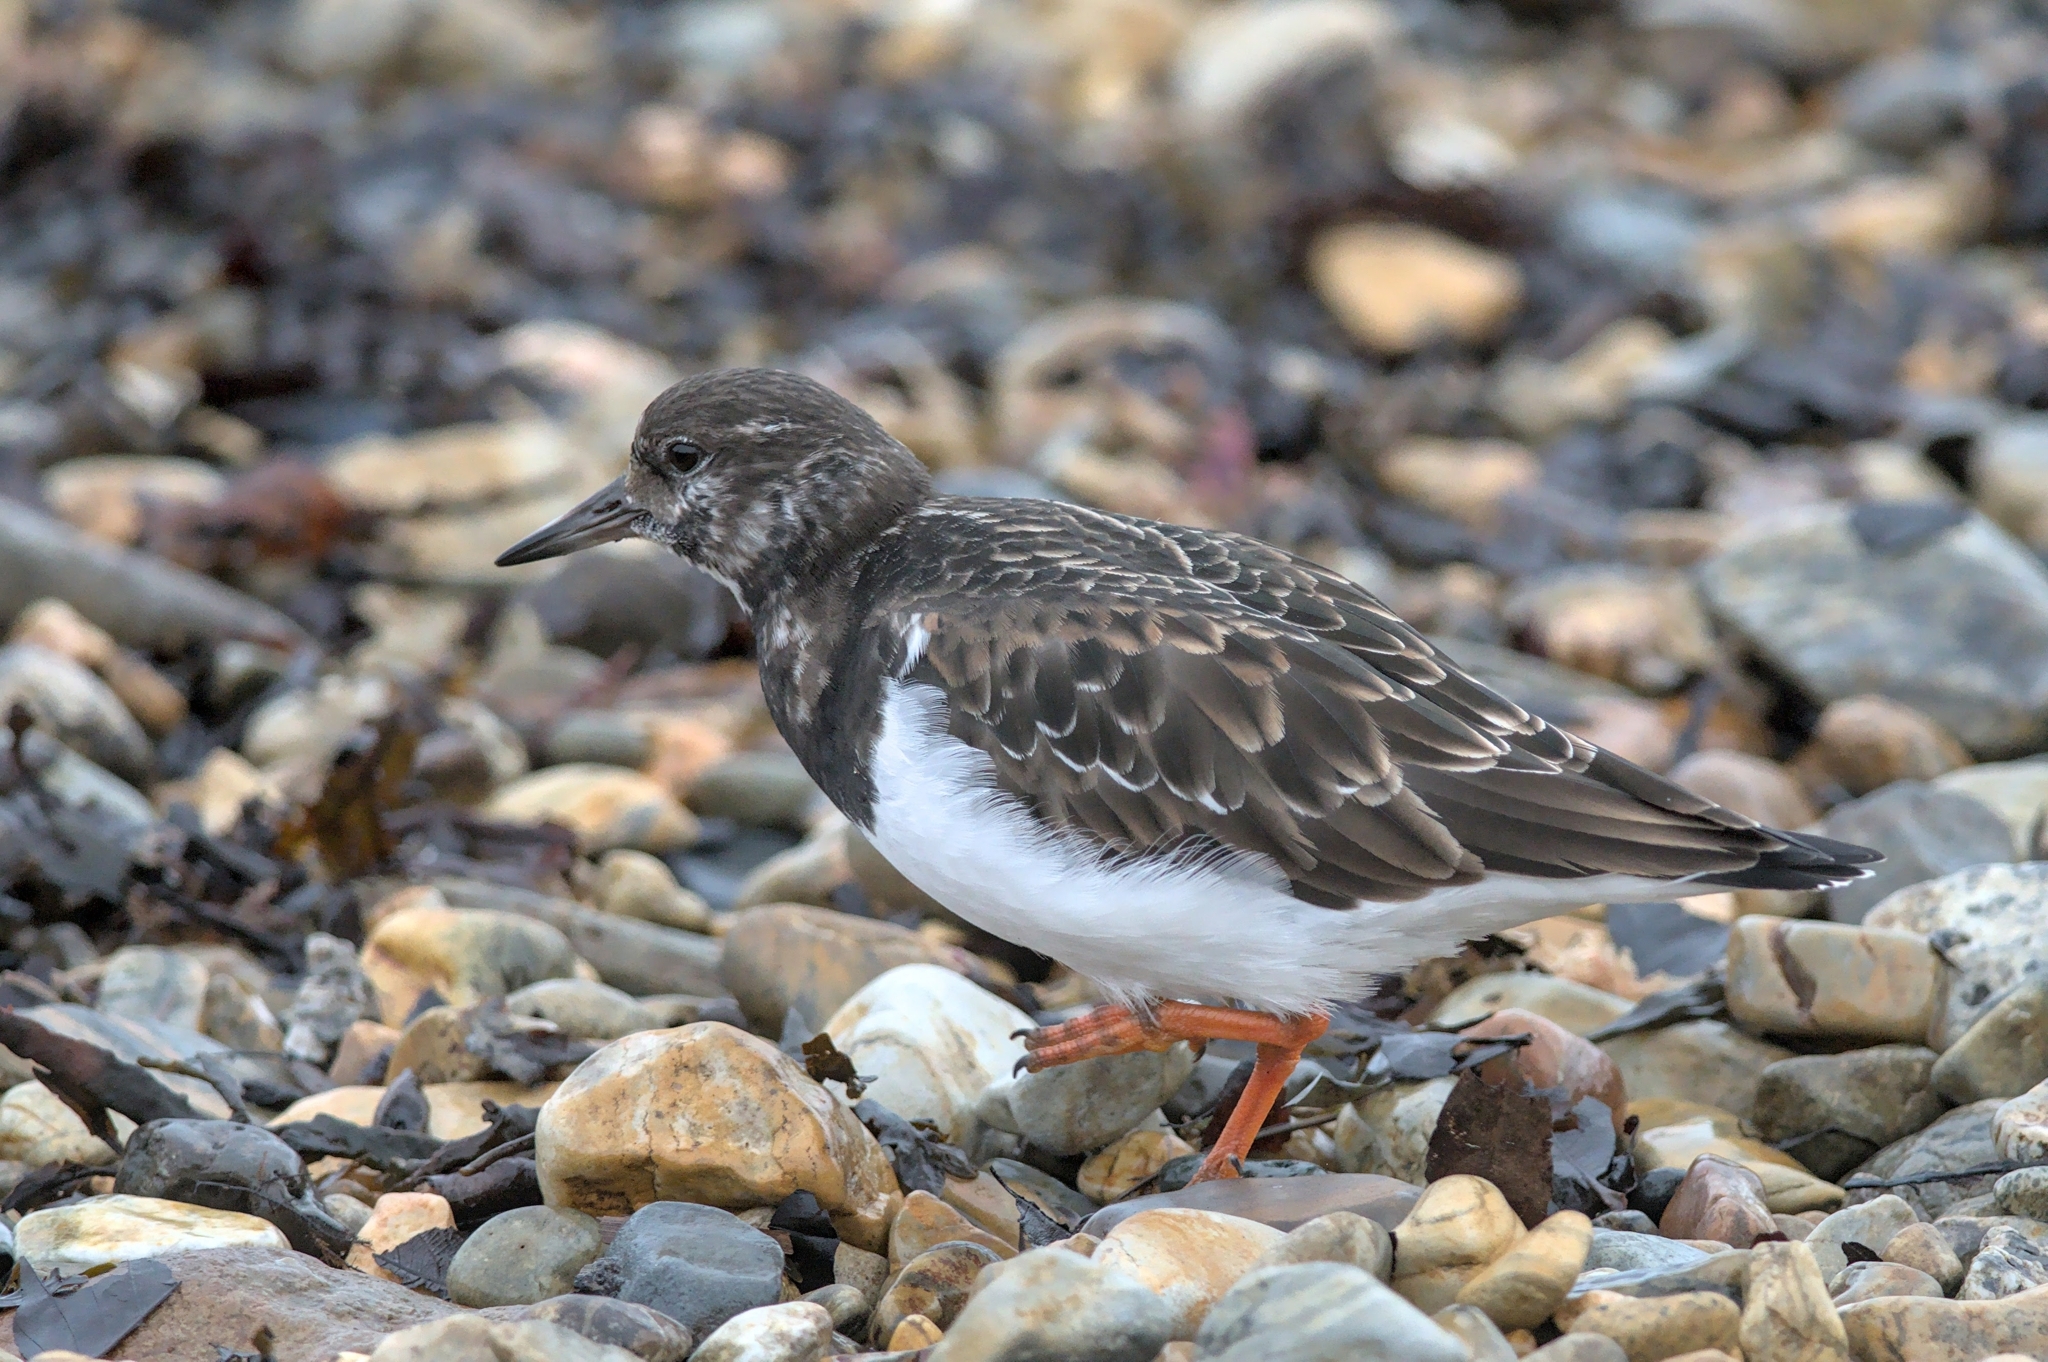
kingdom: Animalia
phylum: Chordata
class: Aves
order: Charadriiformes
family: Scolopacidae
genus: Arenaria
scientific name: Arenaria interpres
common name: Ruddy turnstone
